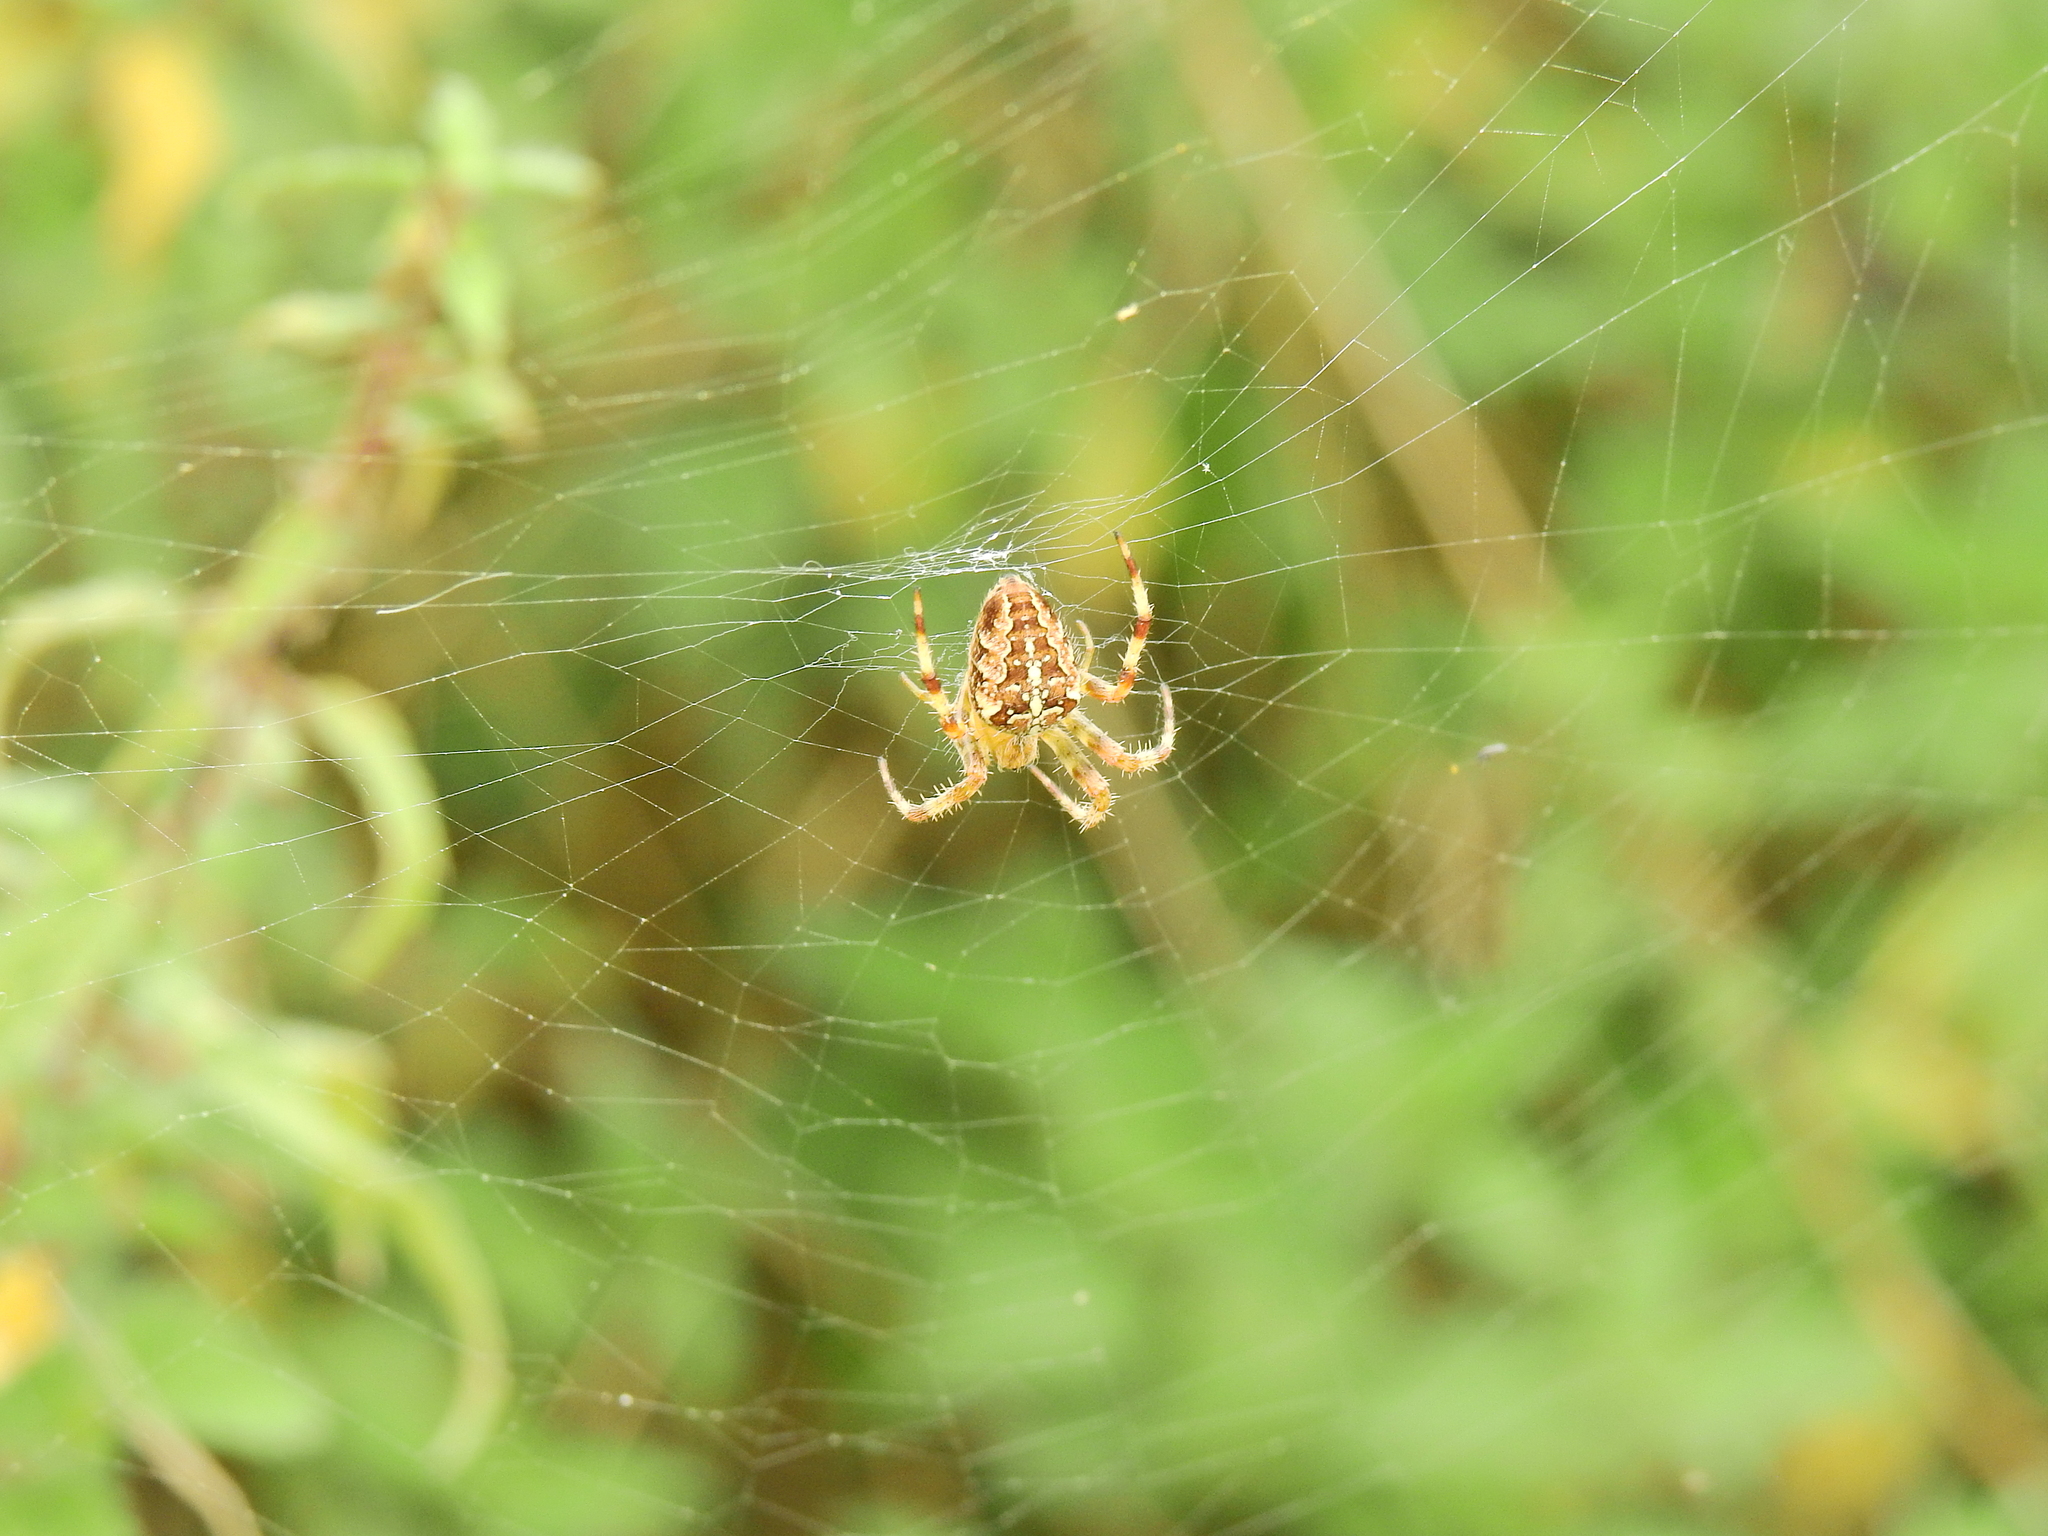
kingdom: Animalia
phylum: Arthropoda
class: Arachnida
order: Araneae
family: Araneidae
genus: Araneus
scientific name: Araneus diadematus
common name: Cross orbweaver
